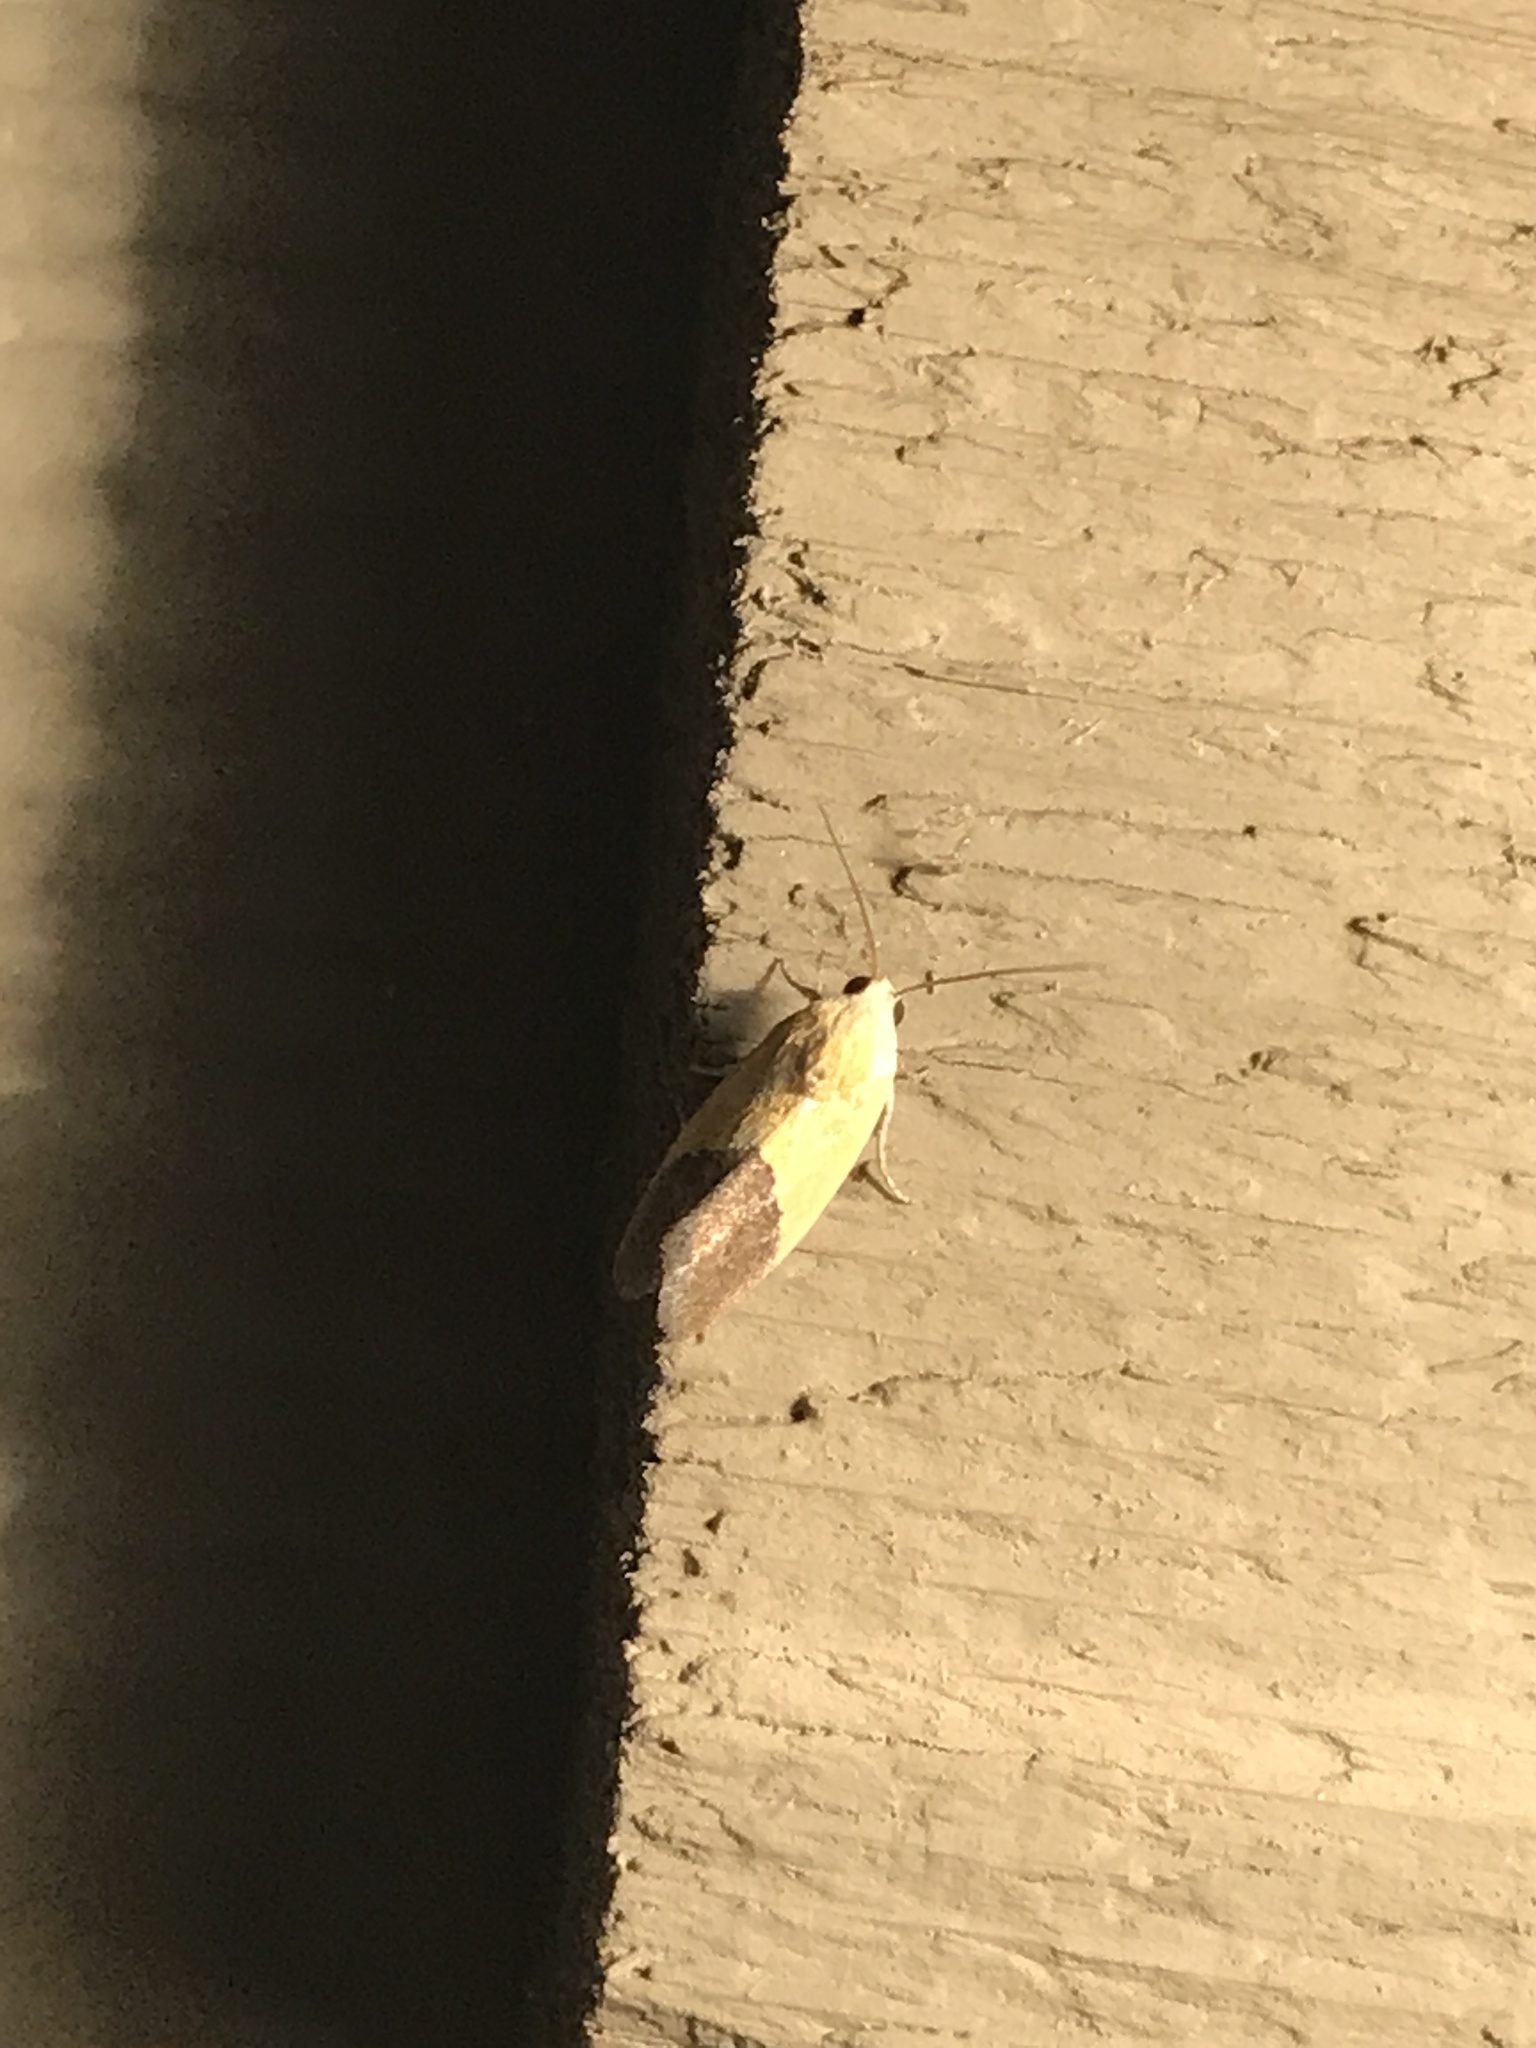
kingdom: Animalia
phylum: Arthropoda
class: Insecta
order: Lepidoptera
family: Noctuidae
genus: Acontia
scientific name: Acontia semiflava
